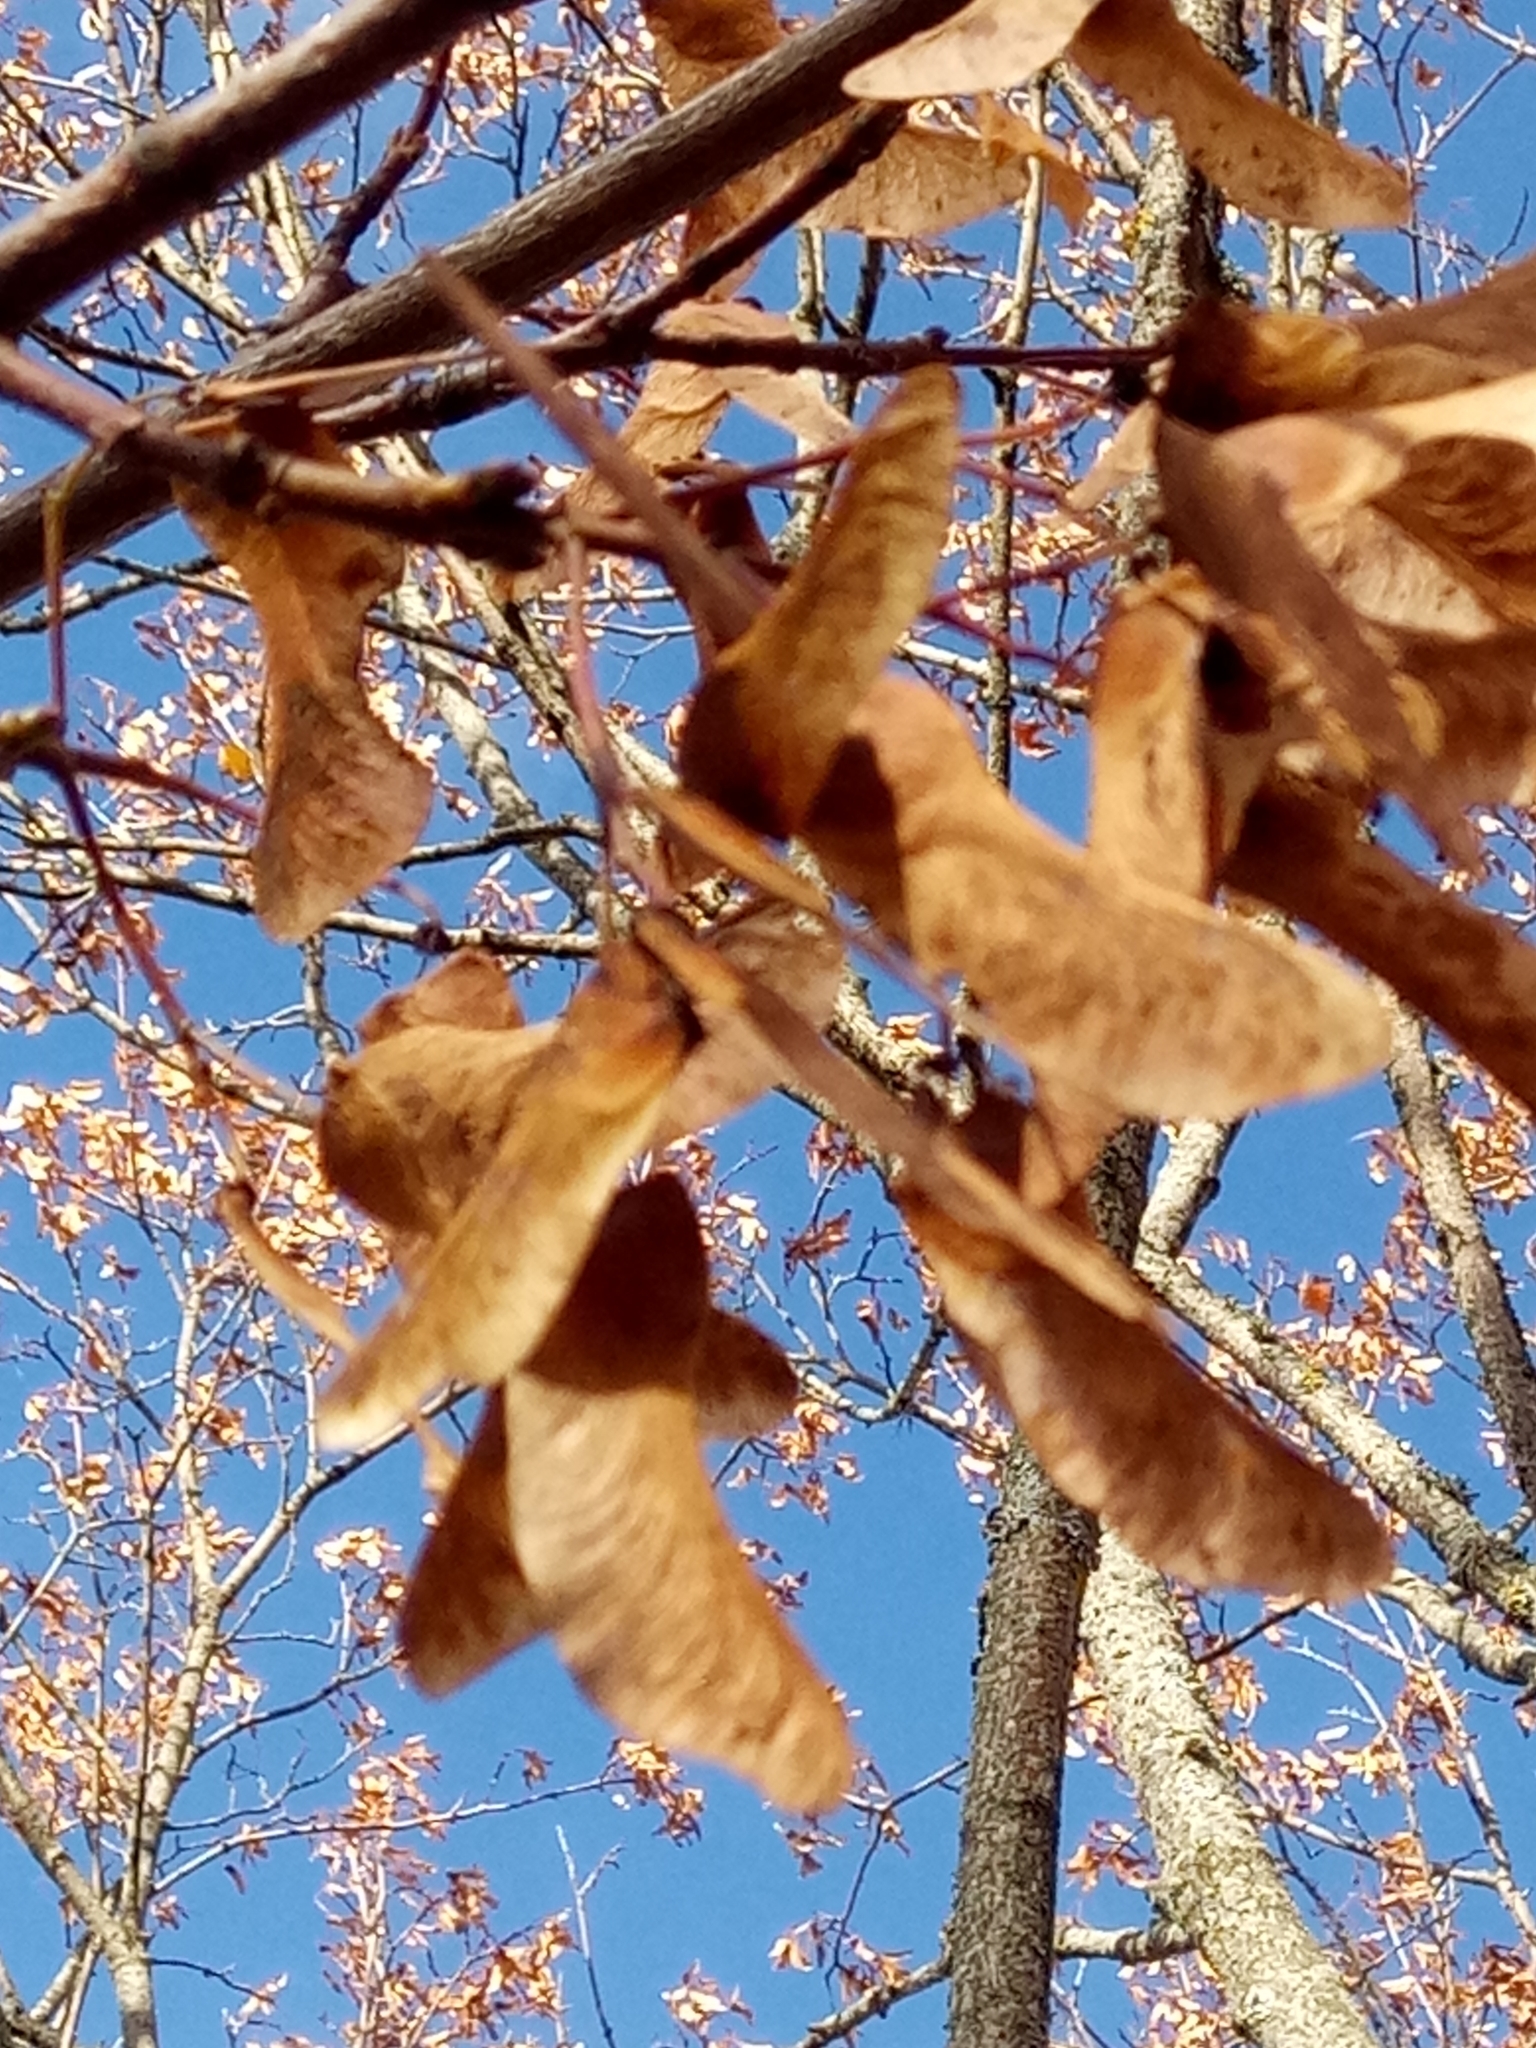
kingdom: Plantae
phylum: Tracheophyta
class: Magnoliopsida
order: Sapindales
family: Sapindaceae
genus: Acer
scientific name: Acer platanoides
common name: Norway maple
